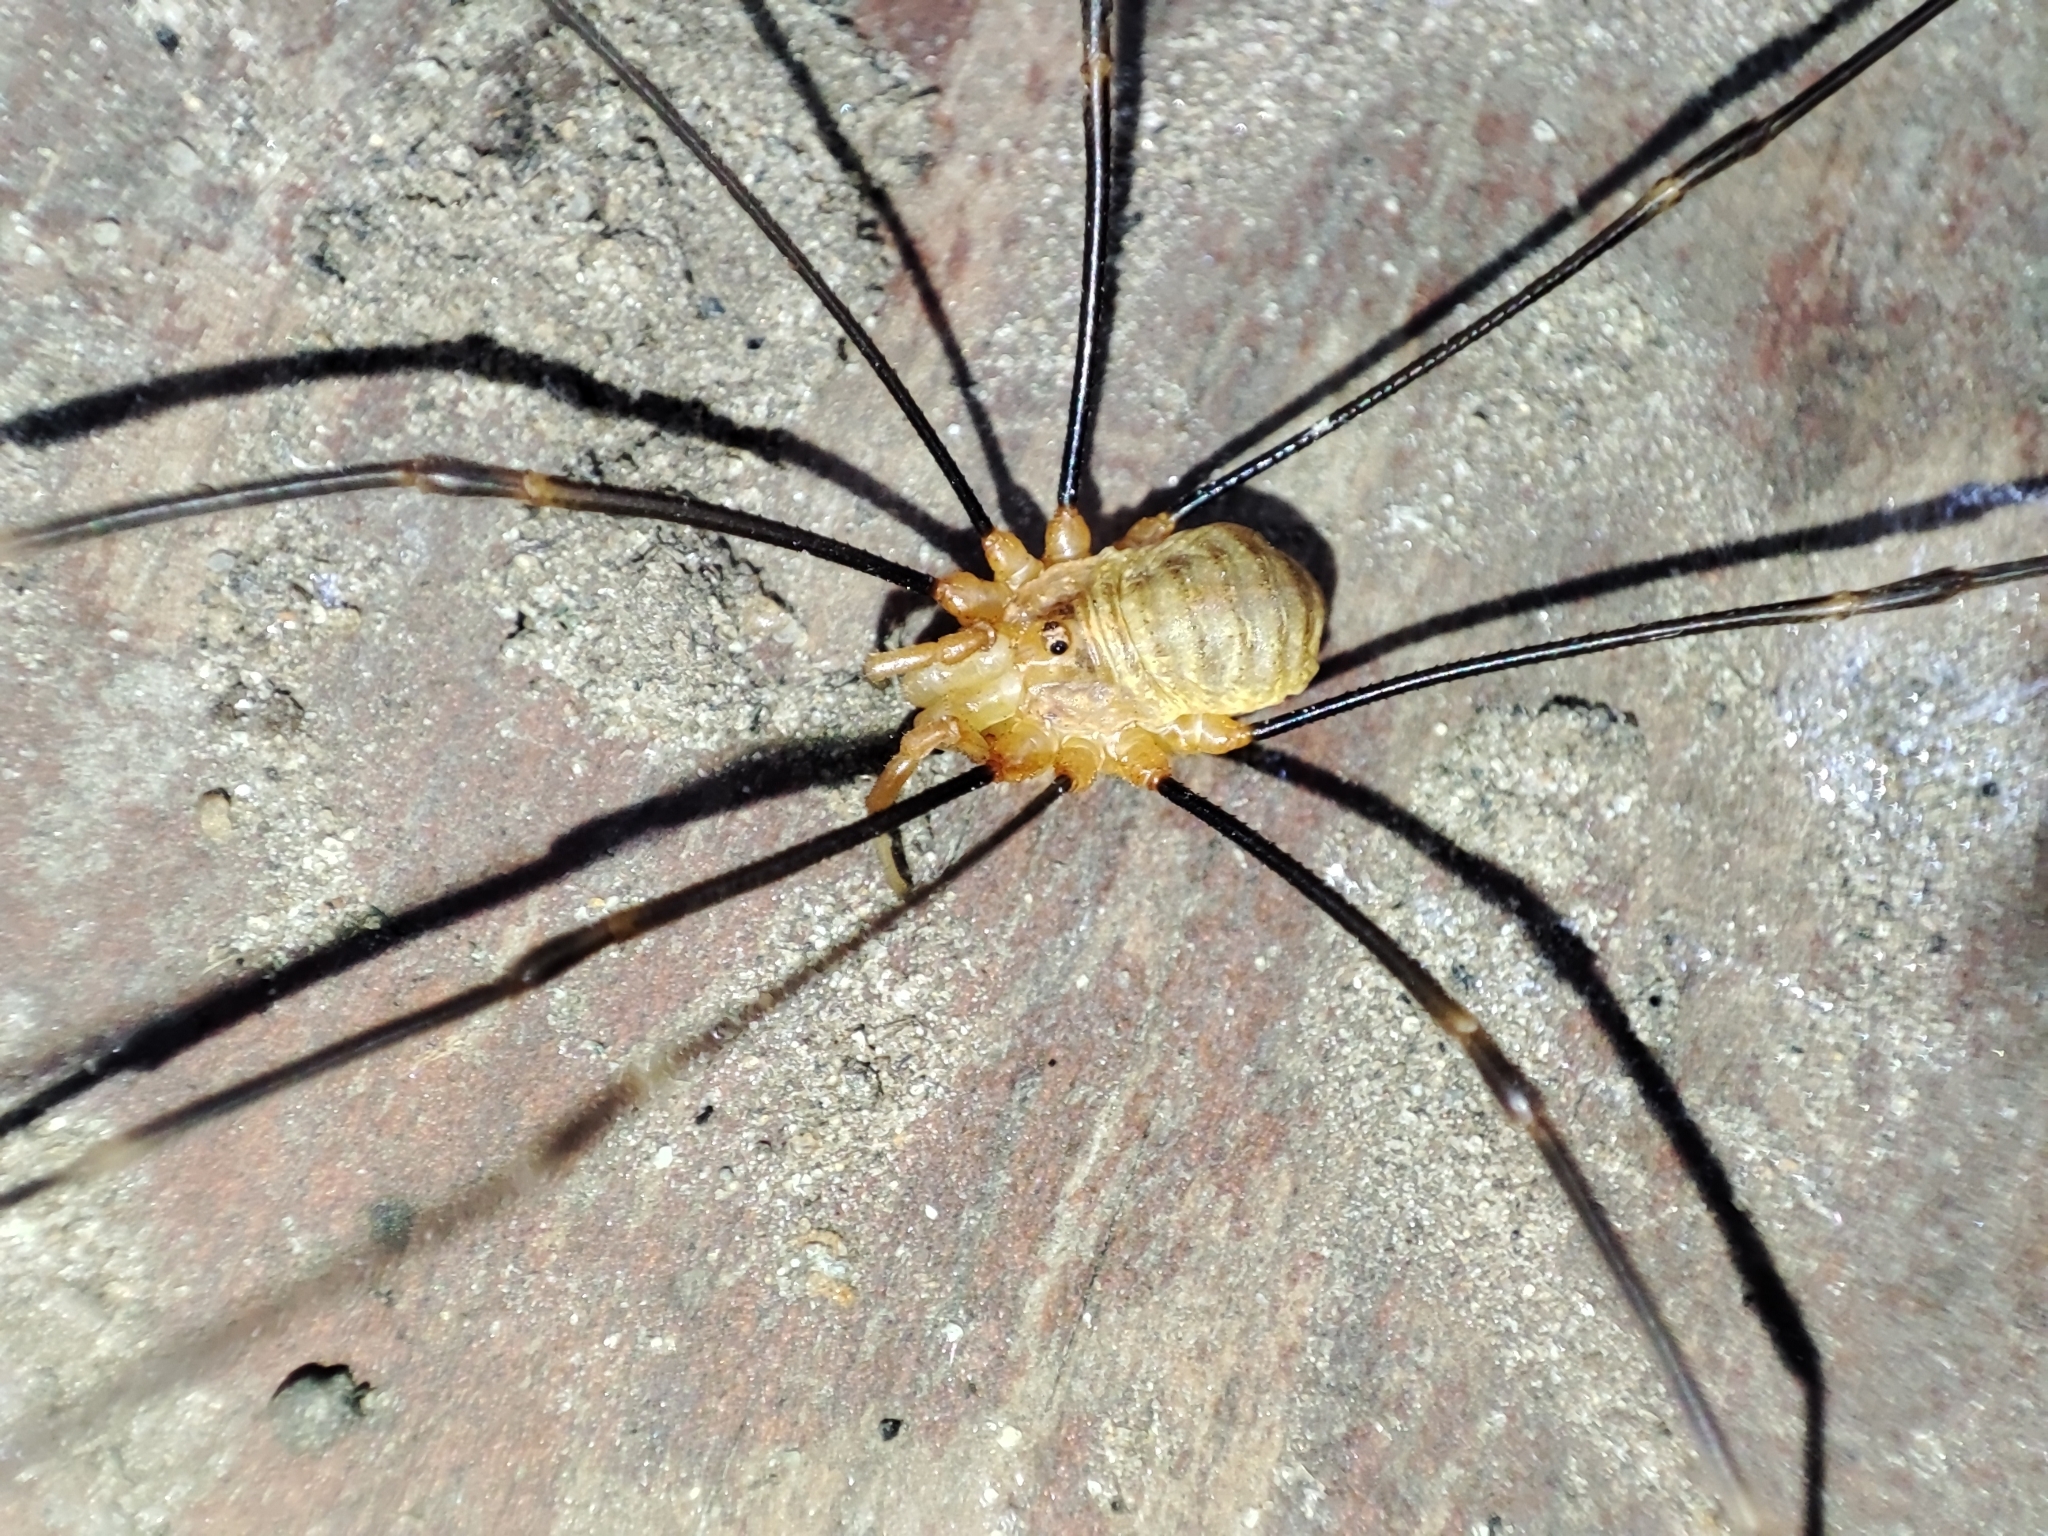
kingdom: Animalia
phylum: Arthropoda
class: Arachnida
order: Opiliones
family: Phalangiidae
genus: Opilio
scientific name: Opilio canestrinii
